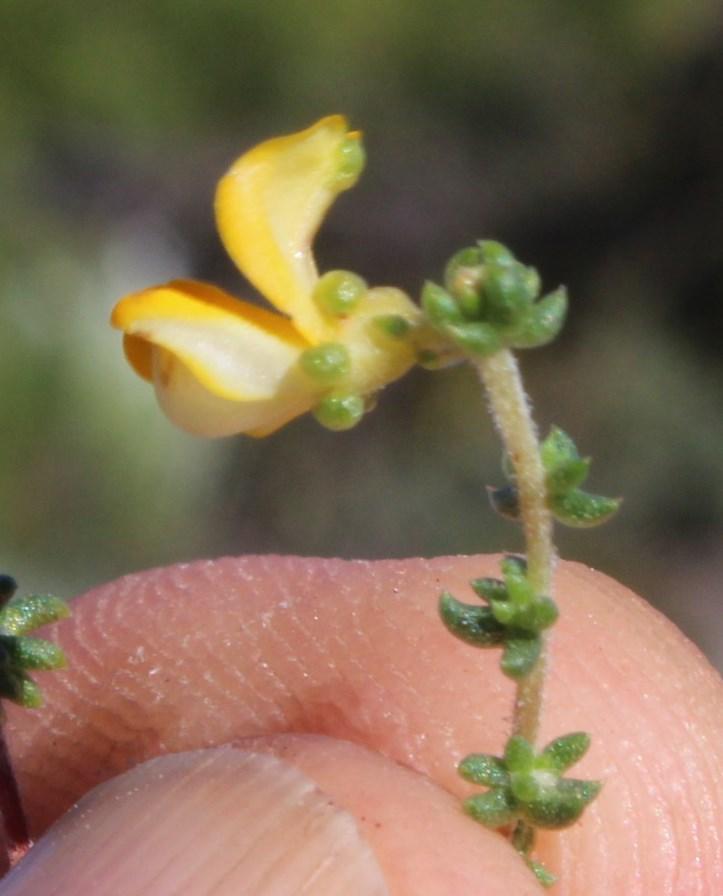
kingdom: Plantae
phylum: Tracheophyta
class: Magnoliopsida
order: Fabales
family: Fabaceae
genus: Aspalathus
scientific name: Aspalathus concava
